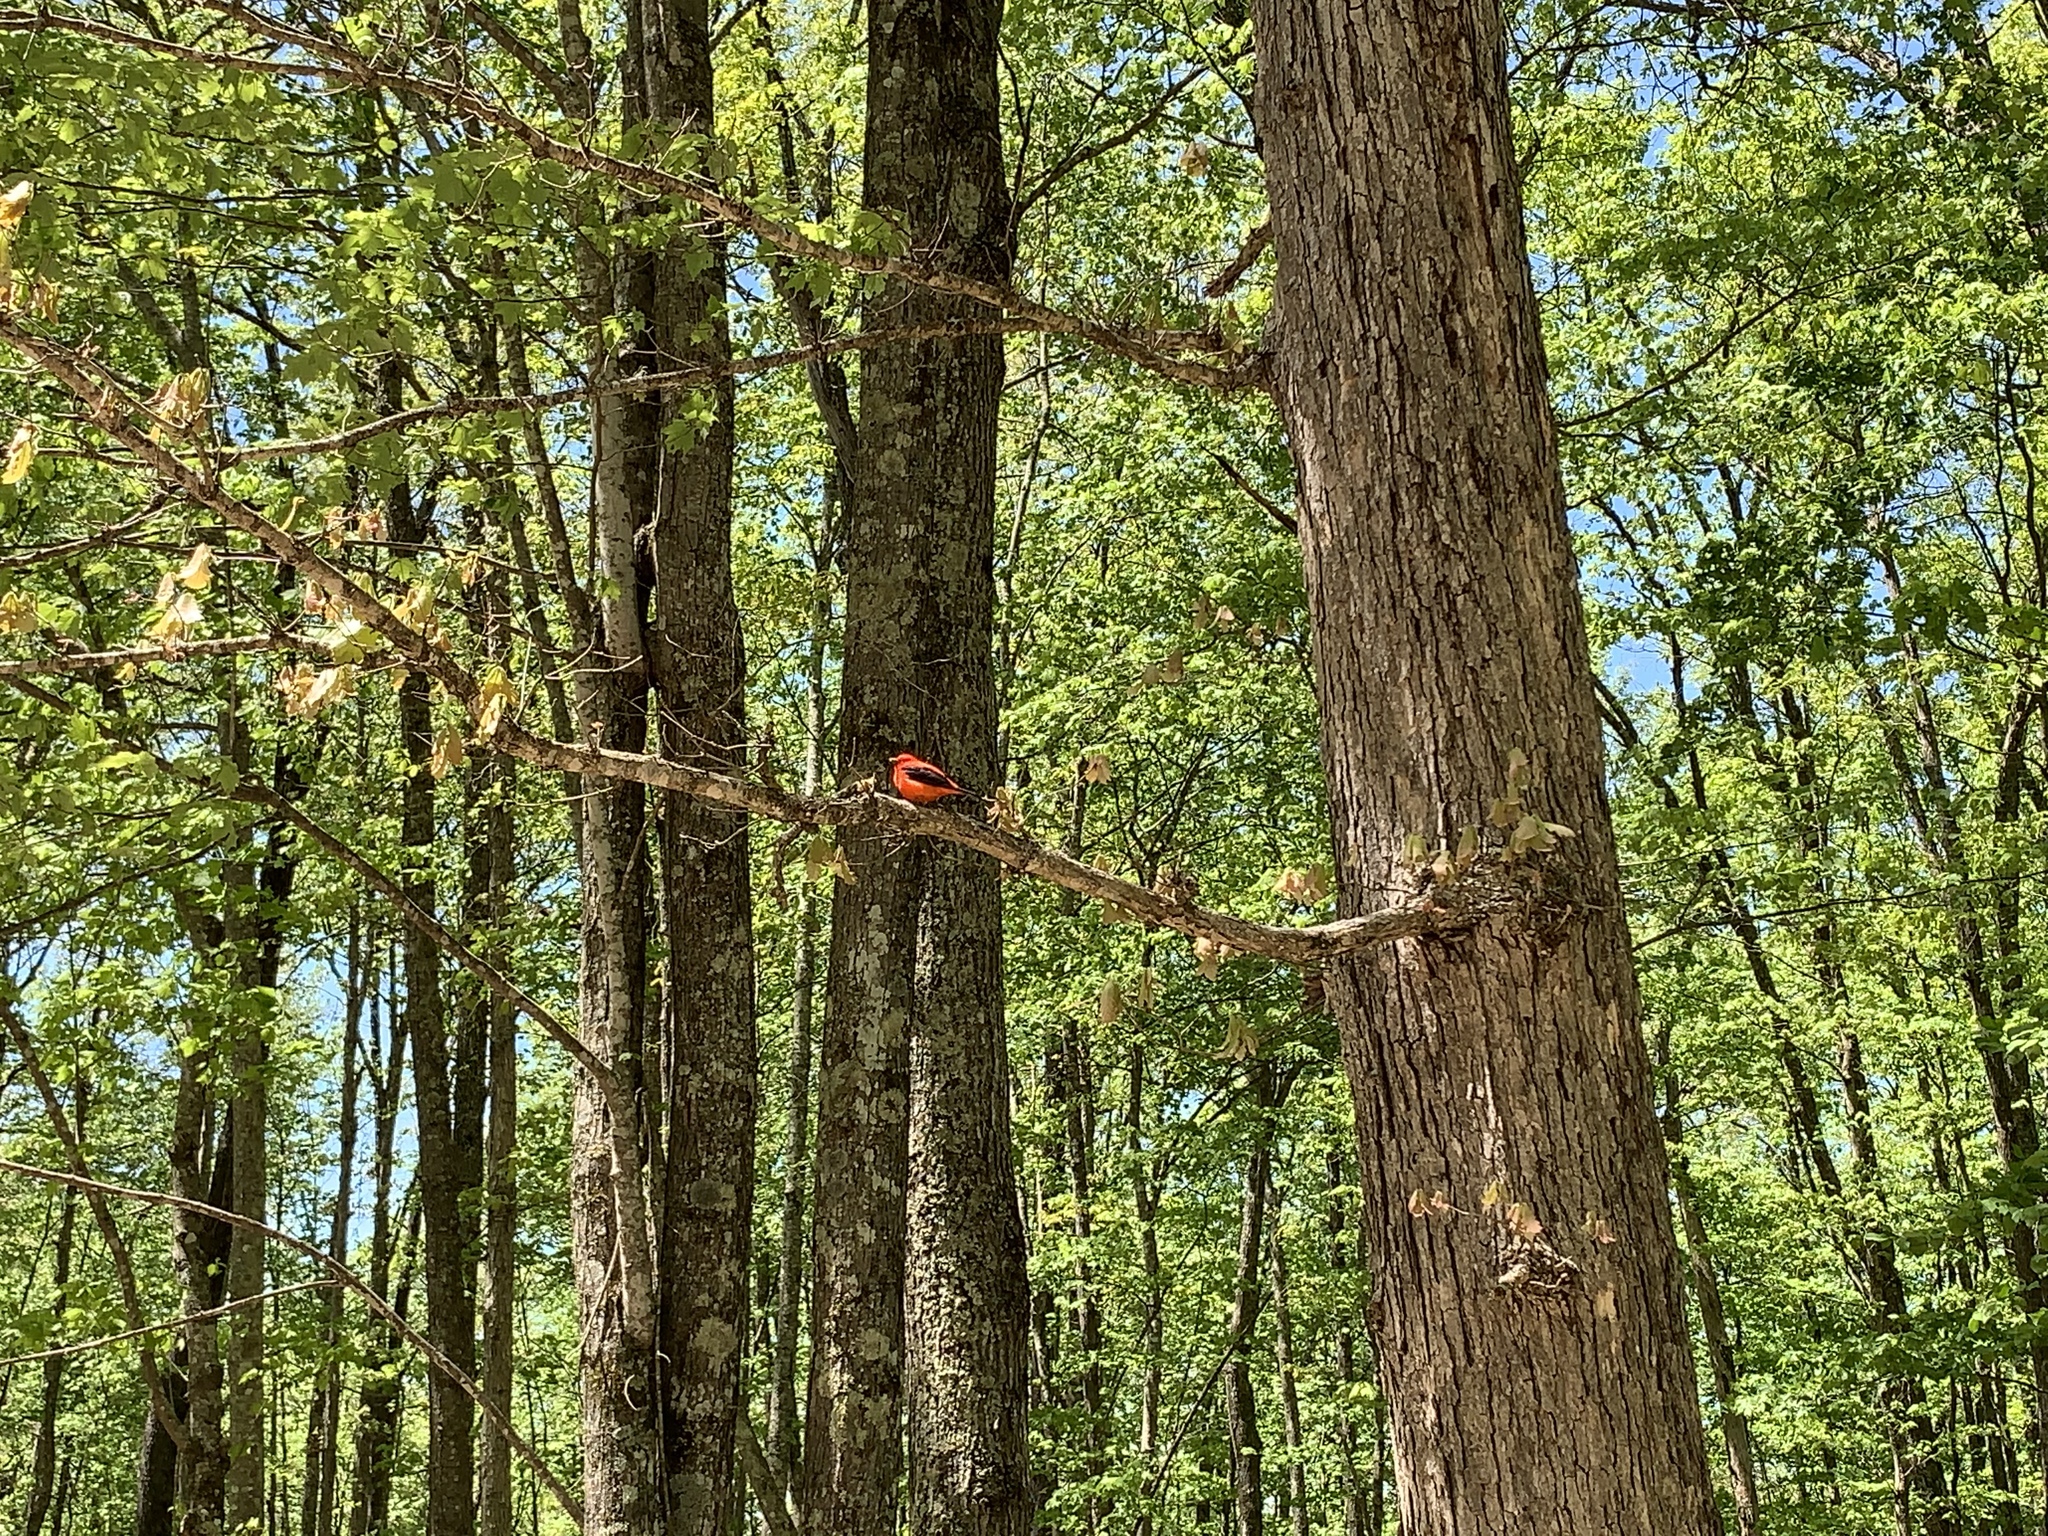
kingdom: Animalia
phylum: Chordata
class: Aves
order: Passeriformes
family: Cardinalidae
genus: Piranga
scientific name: Piranga olivacea
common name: Scarlet tanager
